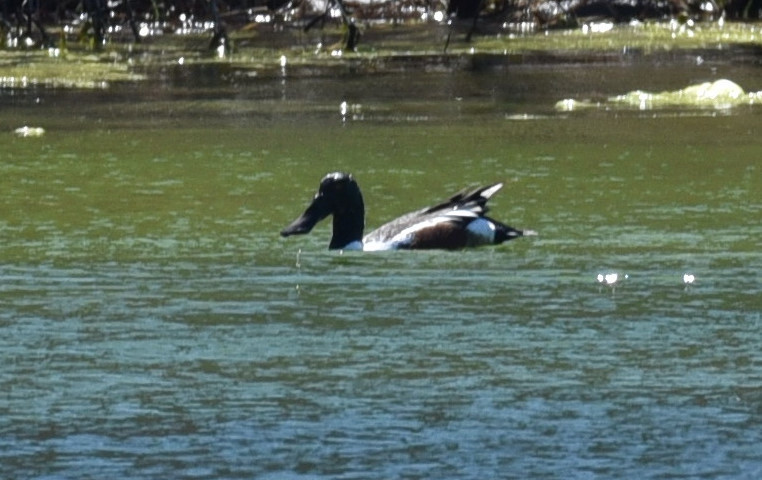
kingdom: Animalia
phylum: Chordata
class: Aves
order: Anseriformes
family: Anatidae
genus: Spatula
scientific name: Spatula clypeata
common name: Northern shoveler
